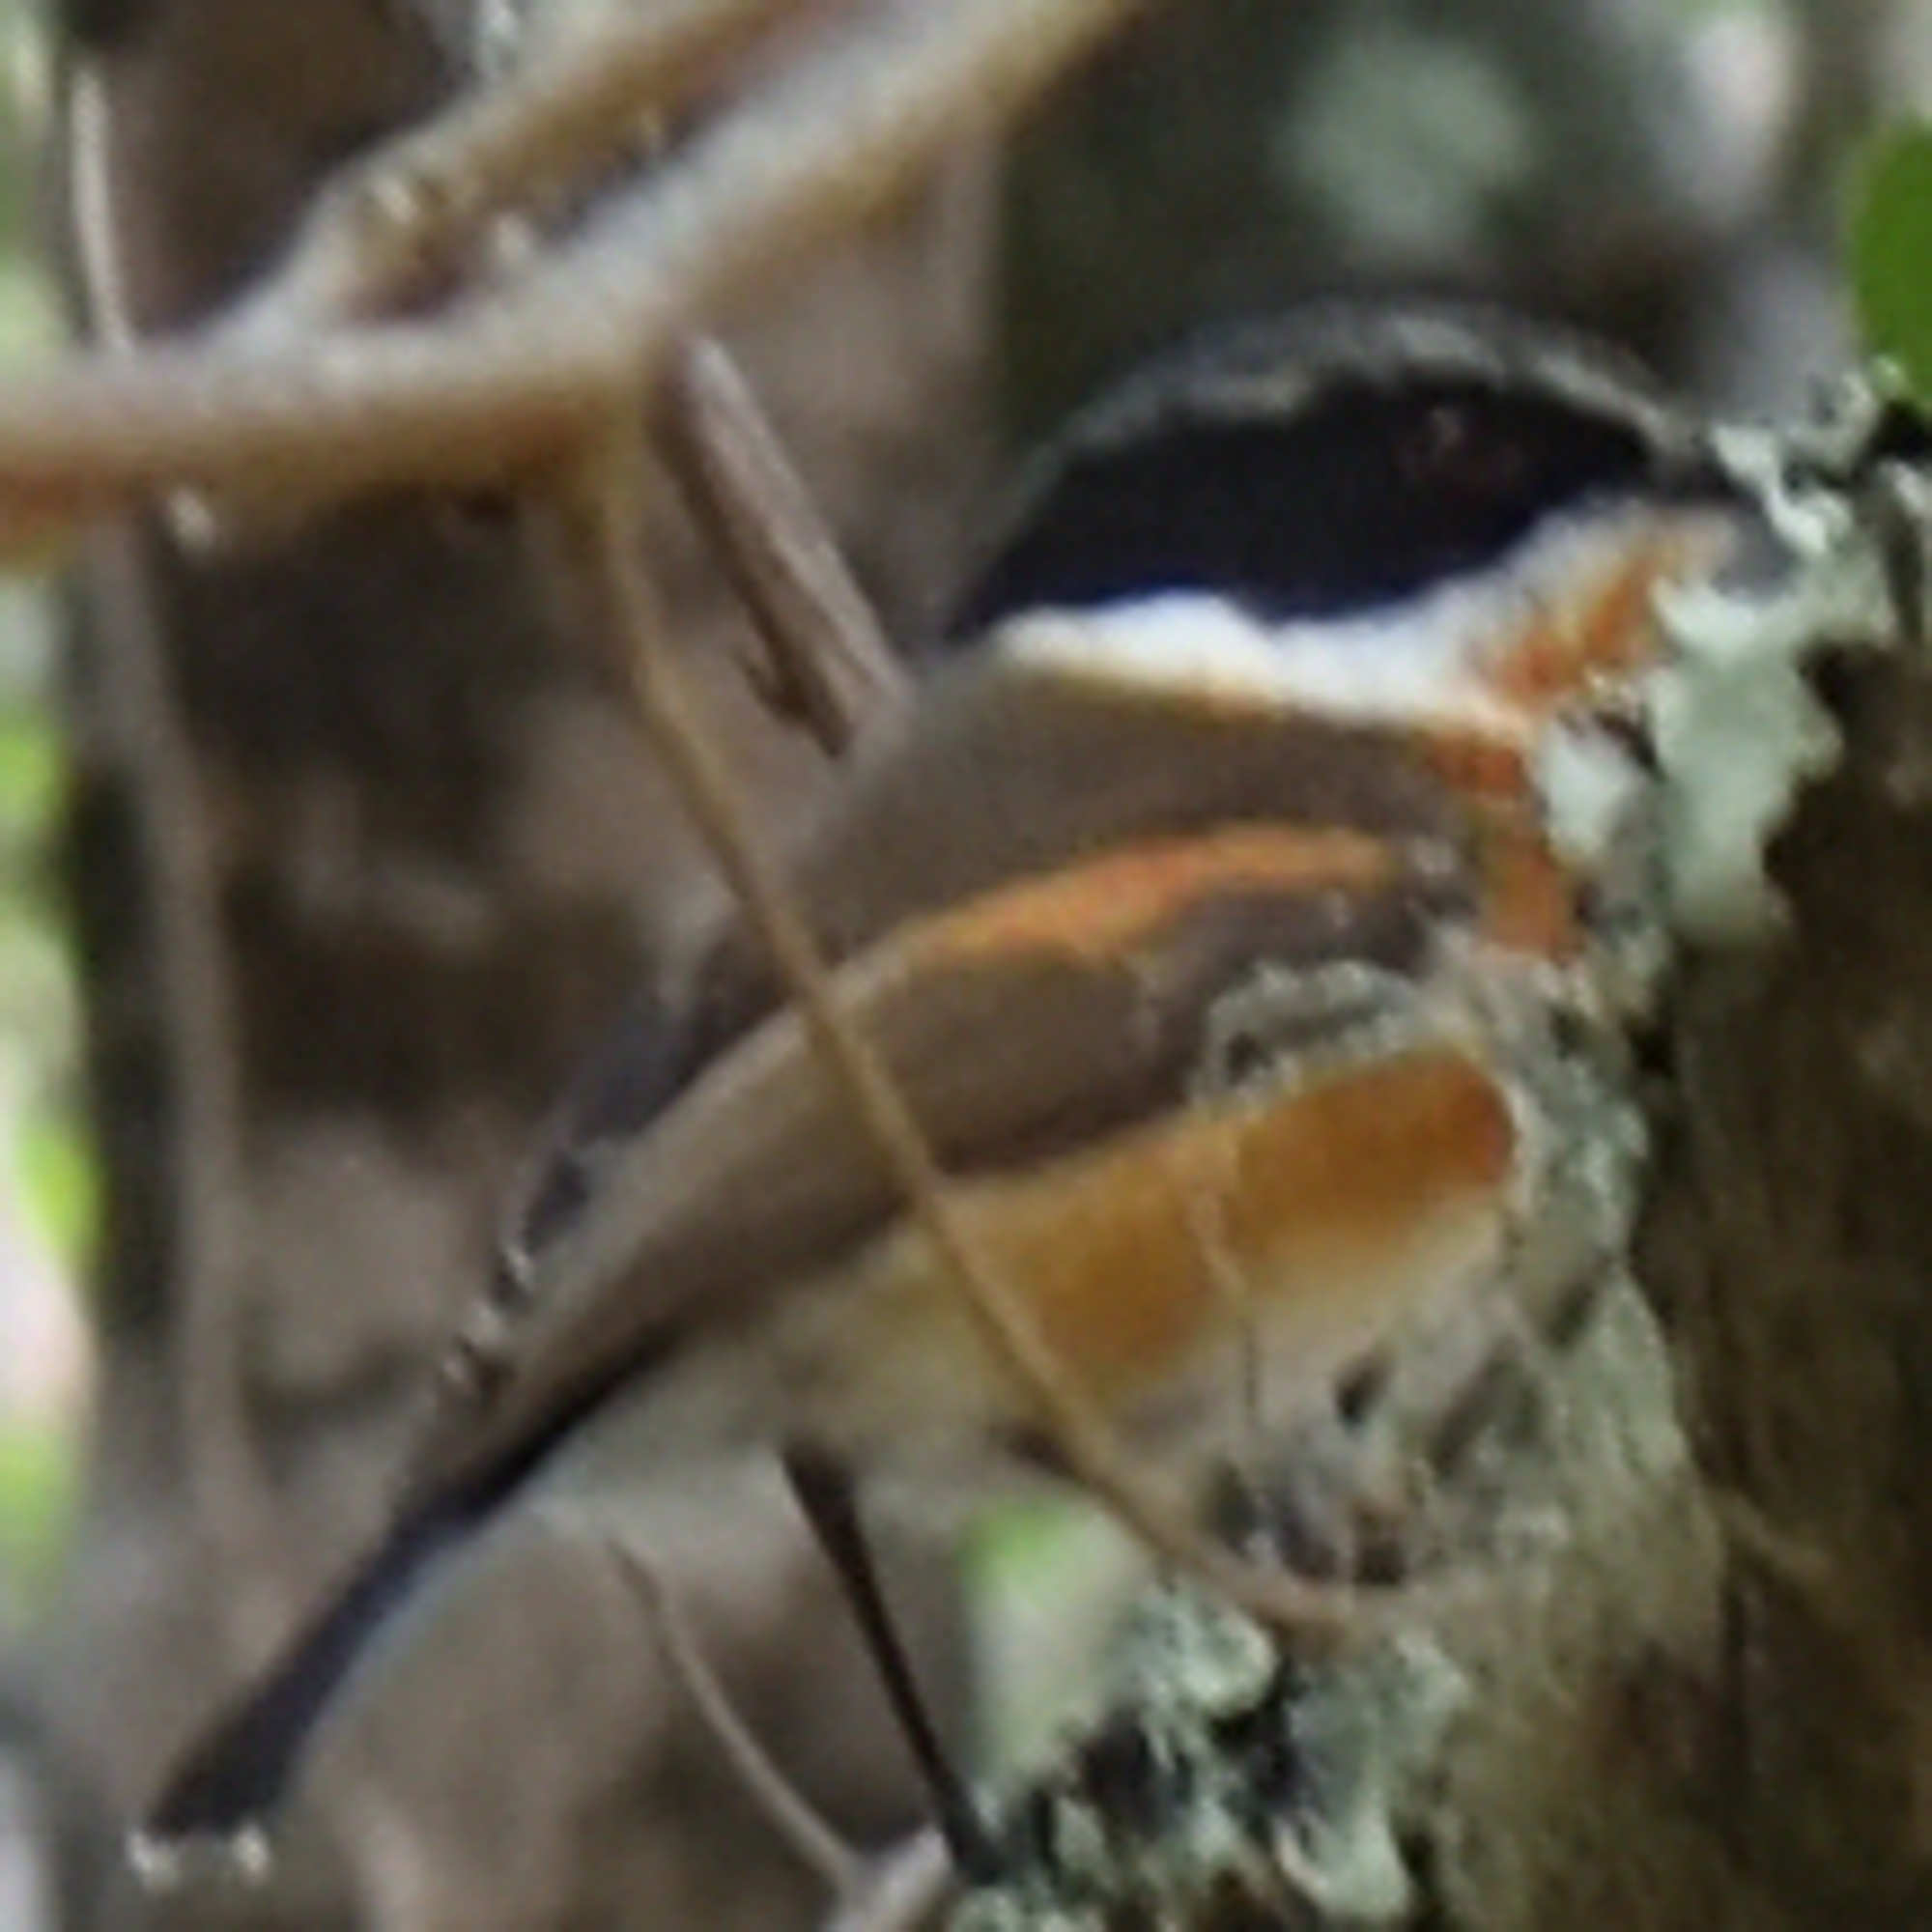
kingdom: Animalia
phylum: Chordata
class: Aves
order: Passeriformes
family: Platysteiridae
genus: Batis
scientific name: Batis capensis
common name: Cape batis
